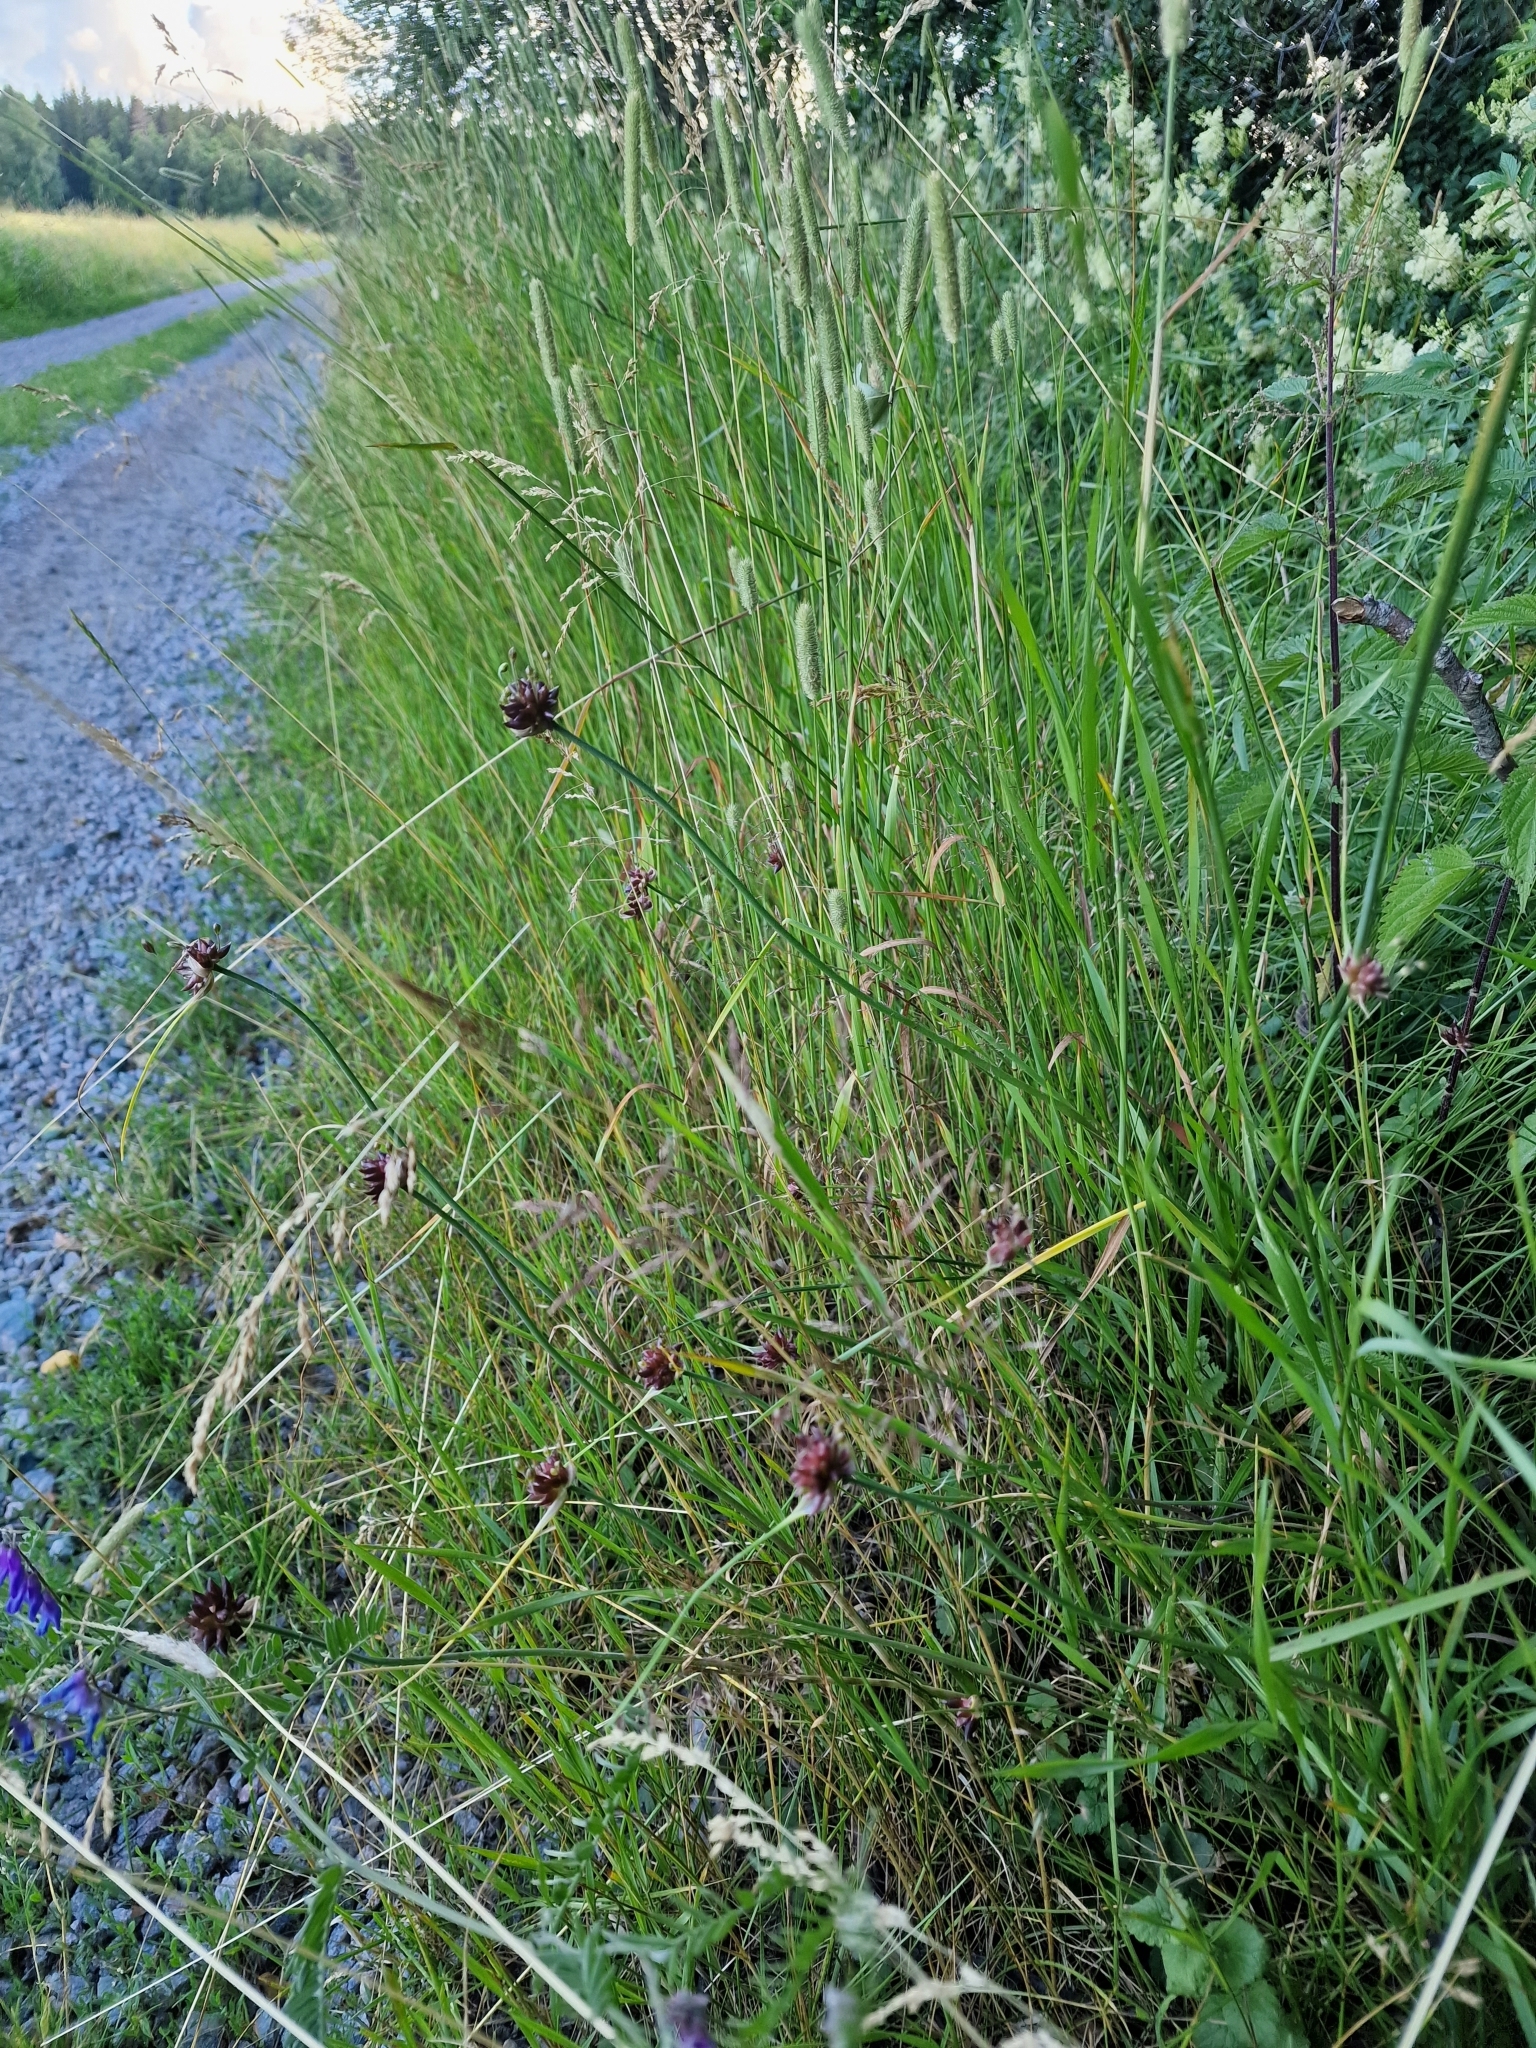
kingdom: Plantae
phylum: Tracheophyta
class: Liliopsida
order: Asparagales
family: Amaryllidaceae
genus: Allium
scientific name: Allium oleraceum
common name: Field garlic
